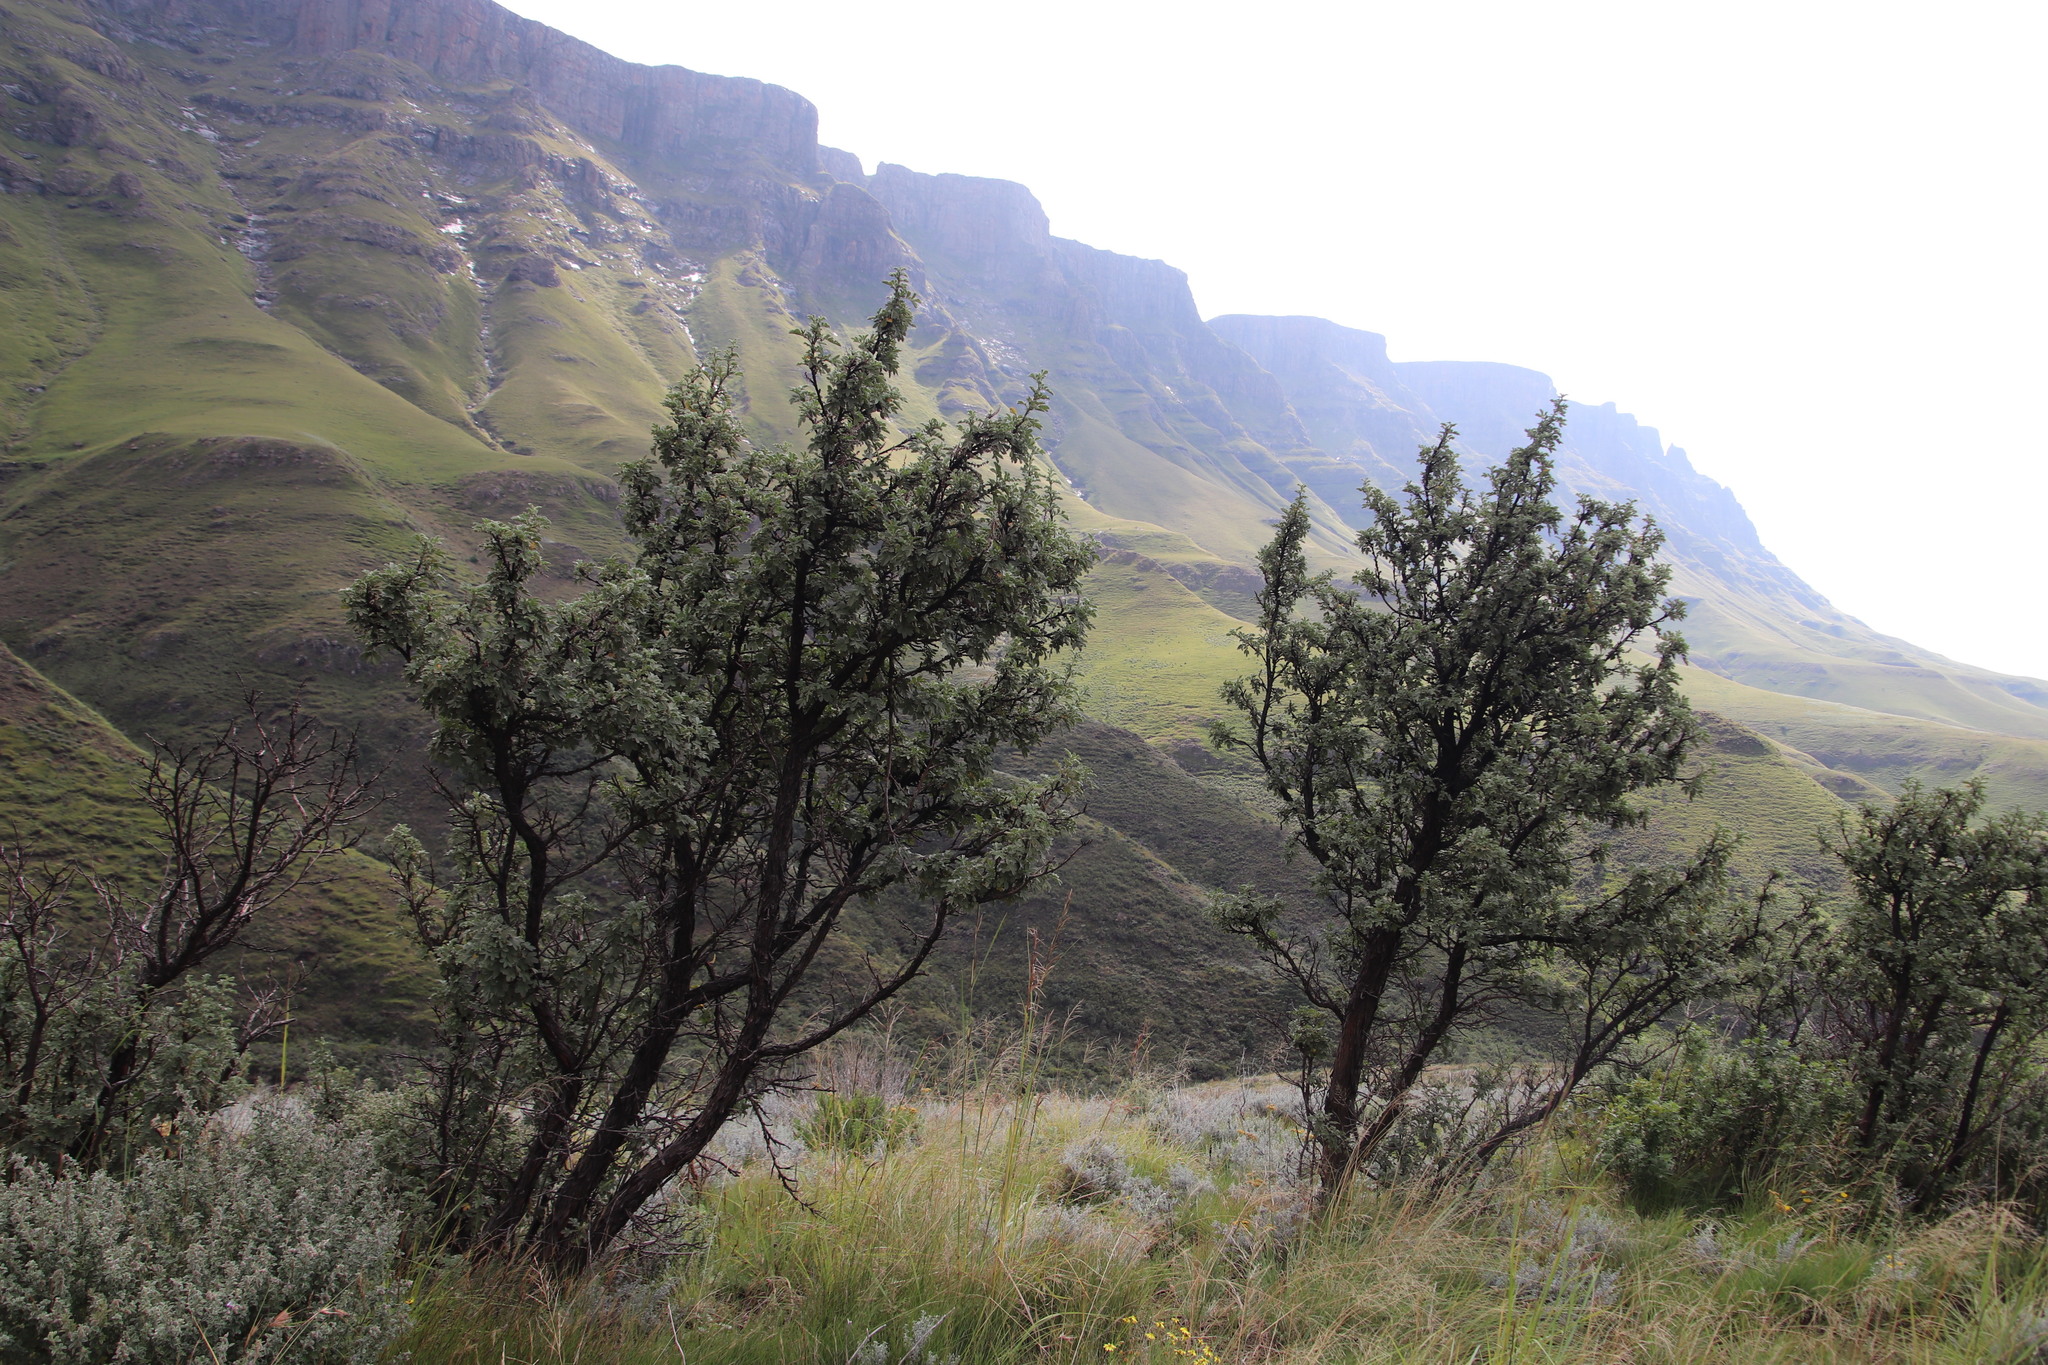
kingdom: Plantae
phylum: Tracheophyta
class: Magnoliopsida
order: Rosales
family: Rosaceae
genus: Leucosidea
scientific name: Leucosidea sericea
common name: Oldwood
